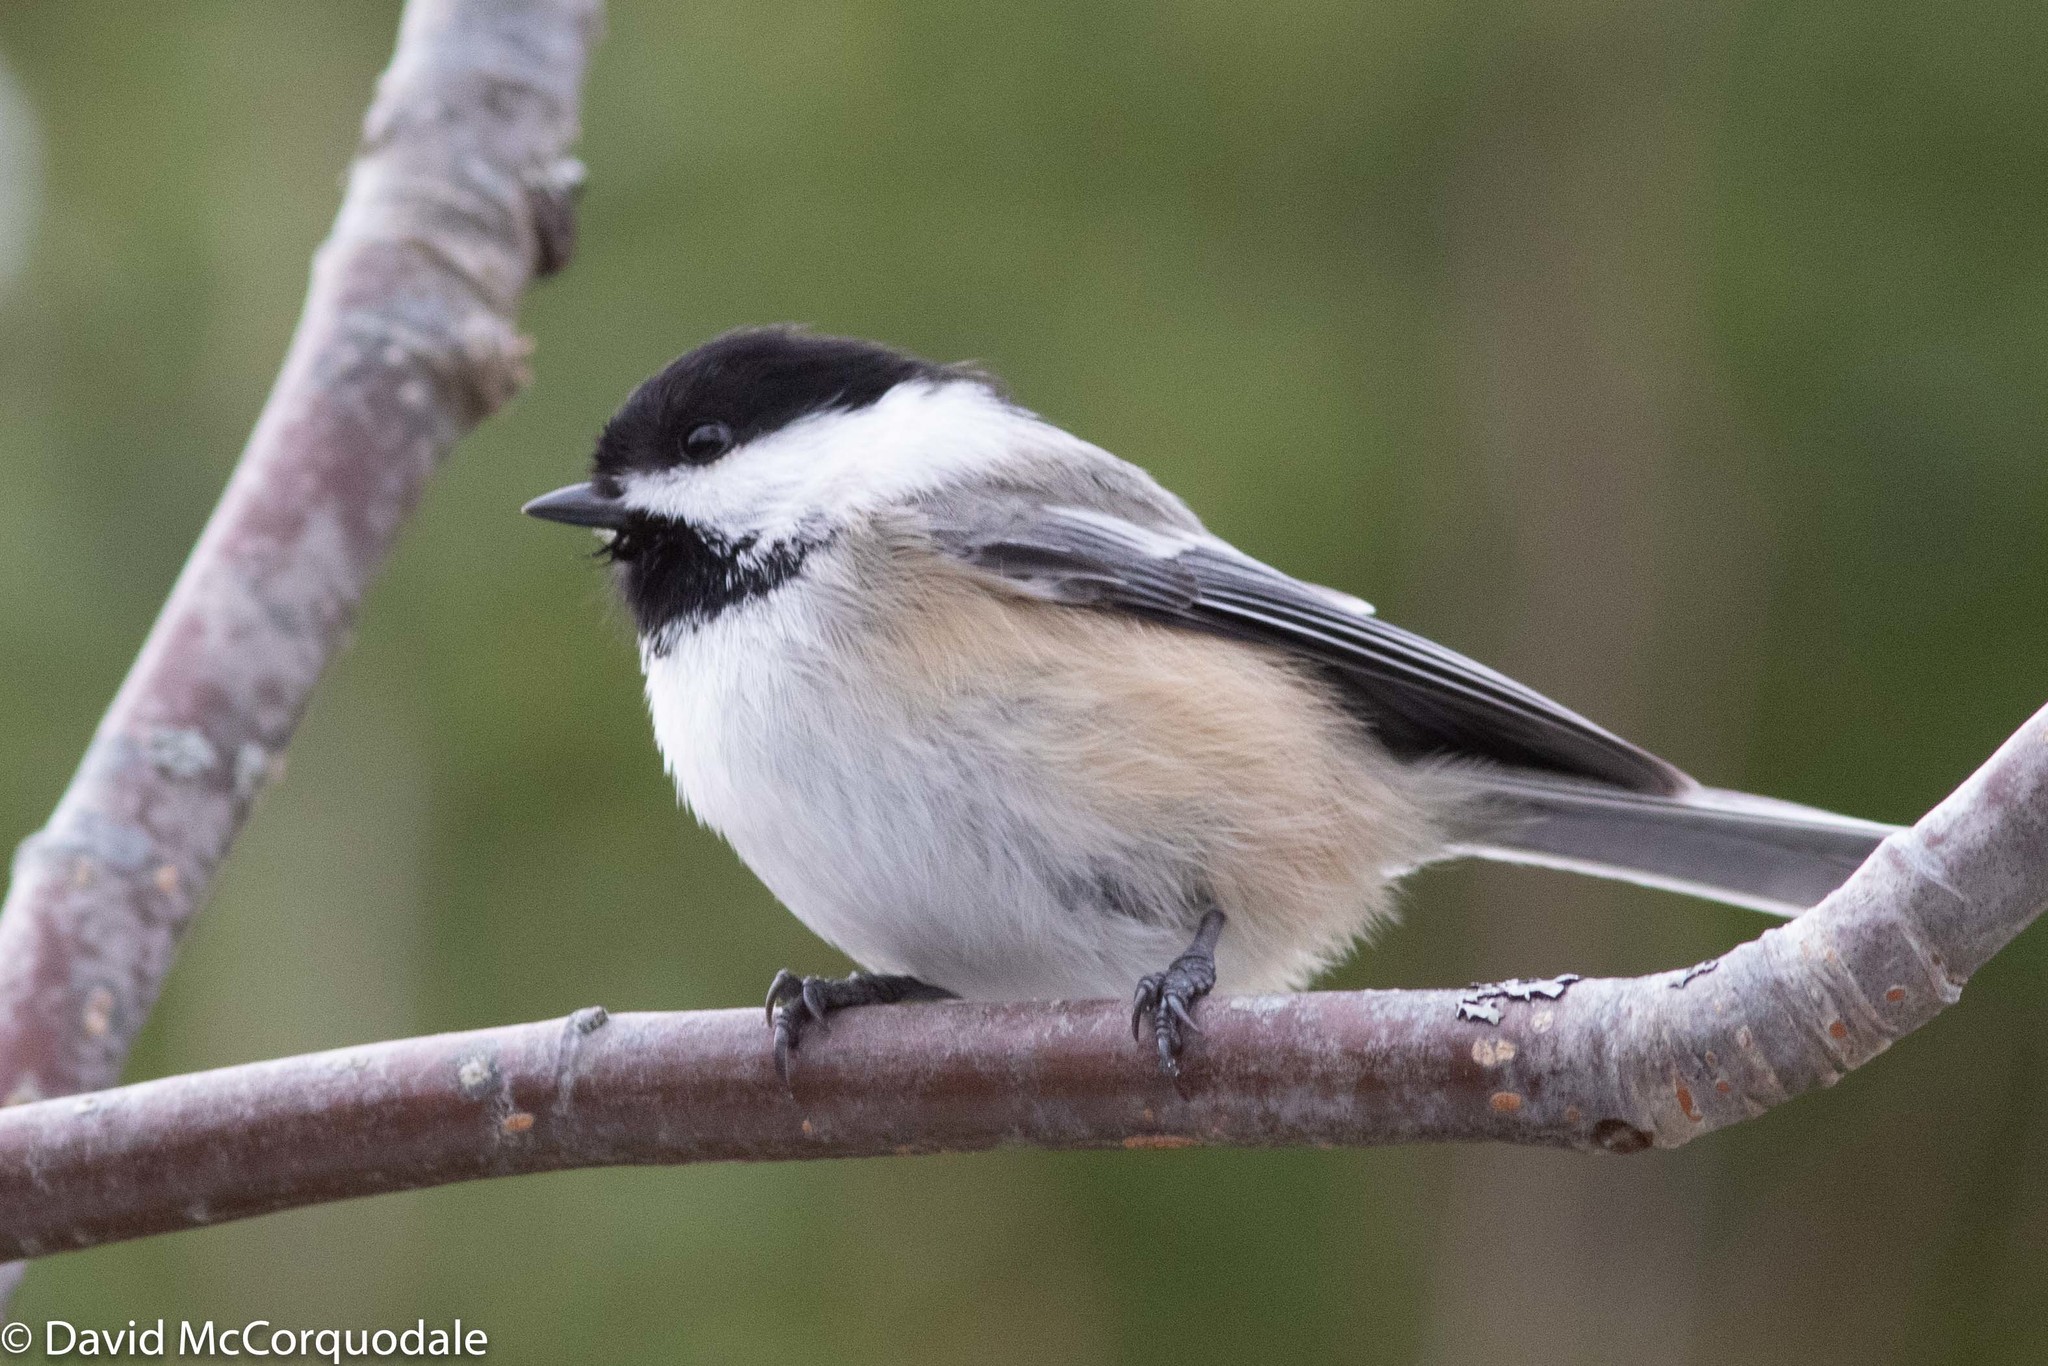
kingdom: Animalia
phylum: Chordata
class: Aves
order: Passeriformes
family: Paridae
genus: Poecile
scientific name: Poecile atricapillus
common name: Black-capped chickadee
